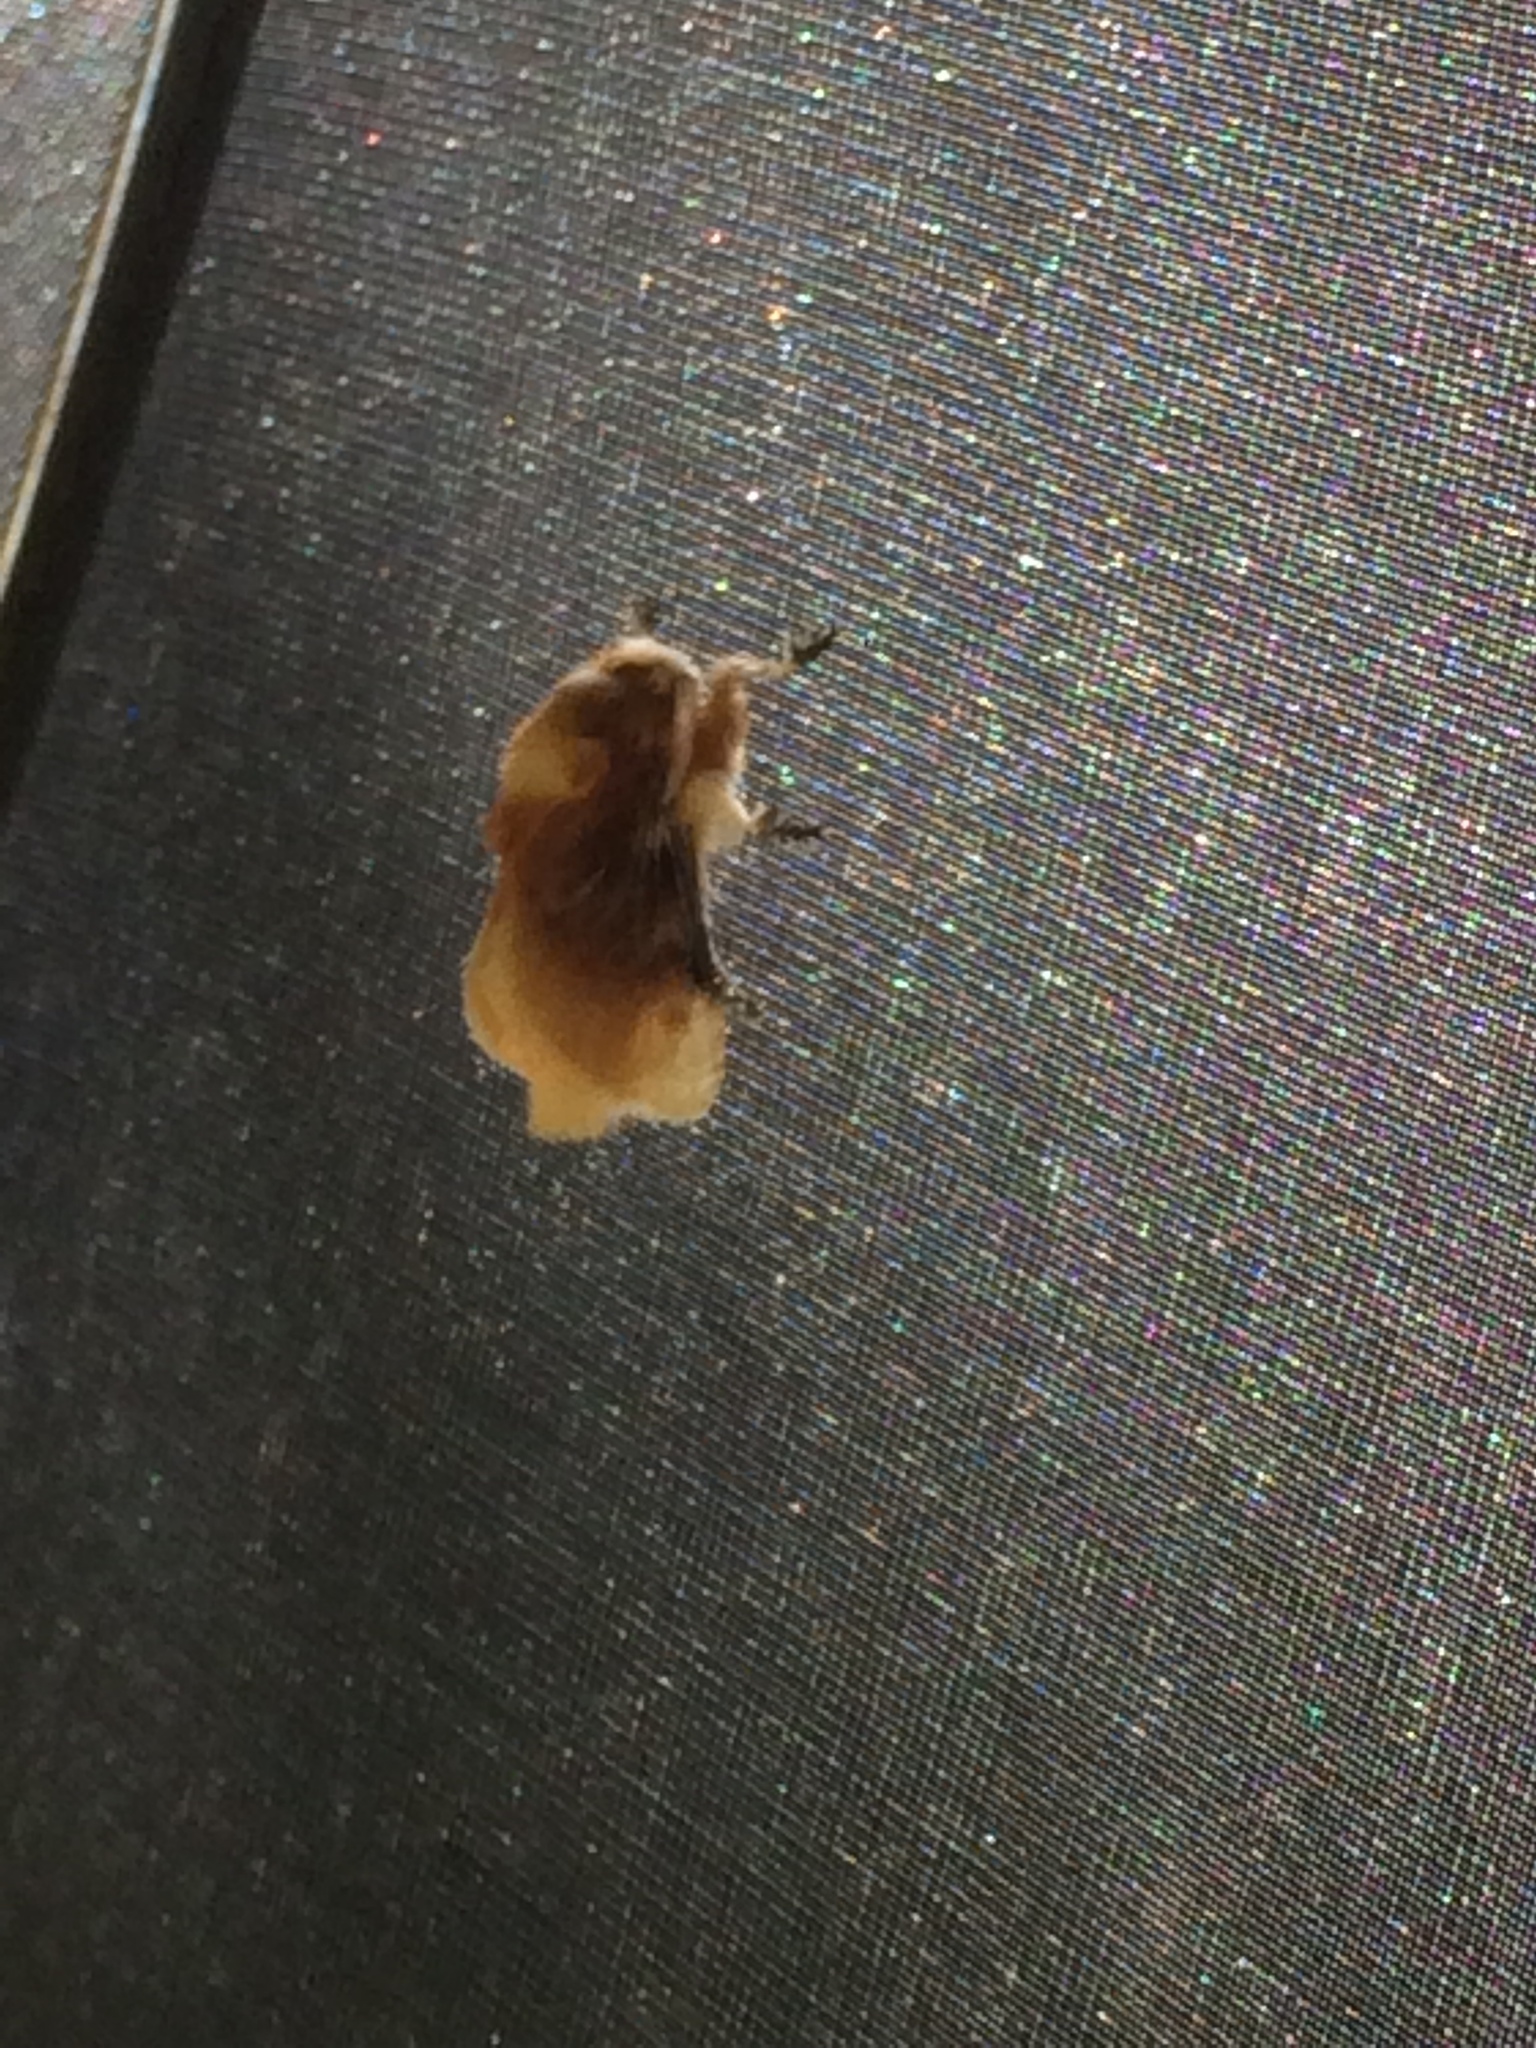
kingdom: Animalia
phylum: Arthropoda
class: Insecta
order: Lepidoptera
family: Megalopygidae
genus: Megalopyge
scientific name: Megalopyge opercularis
